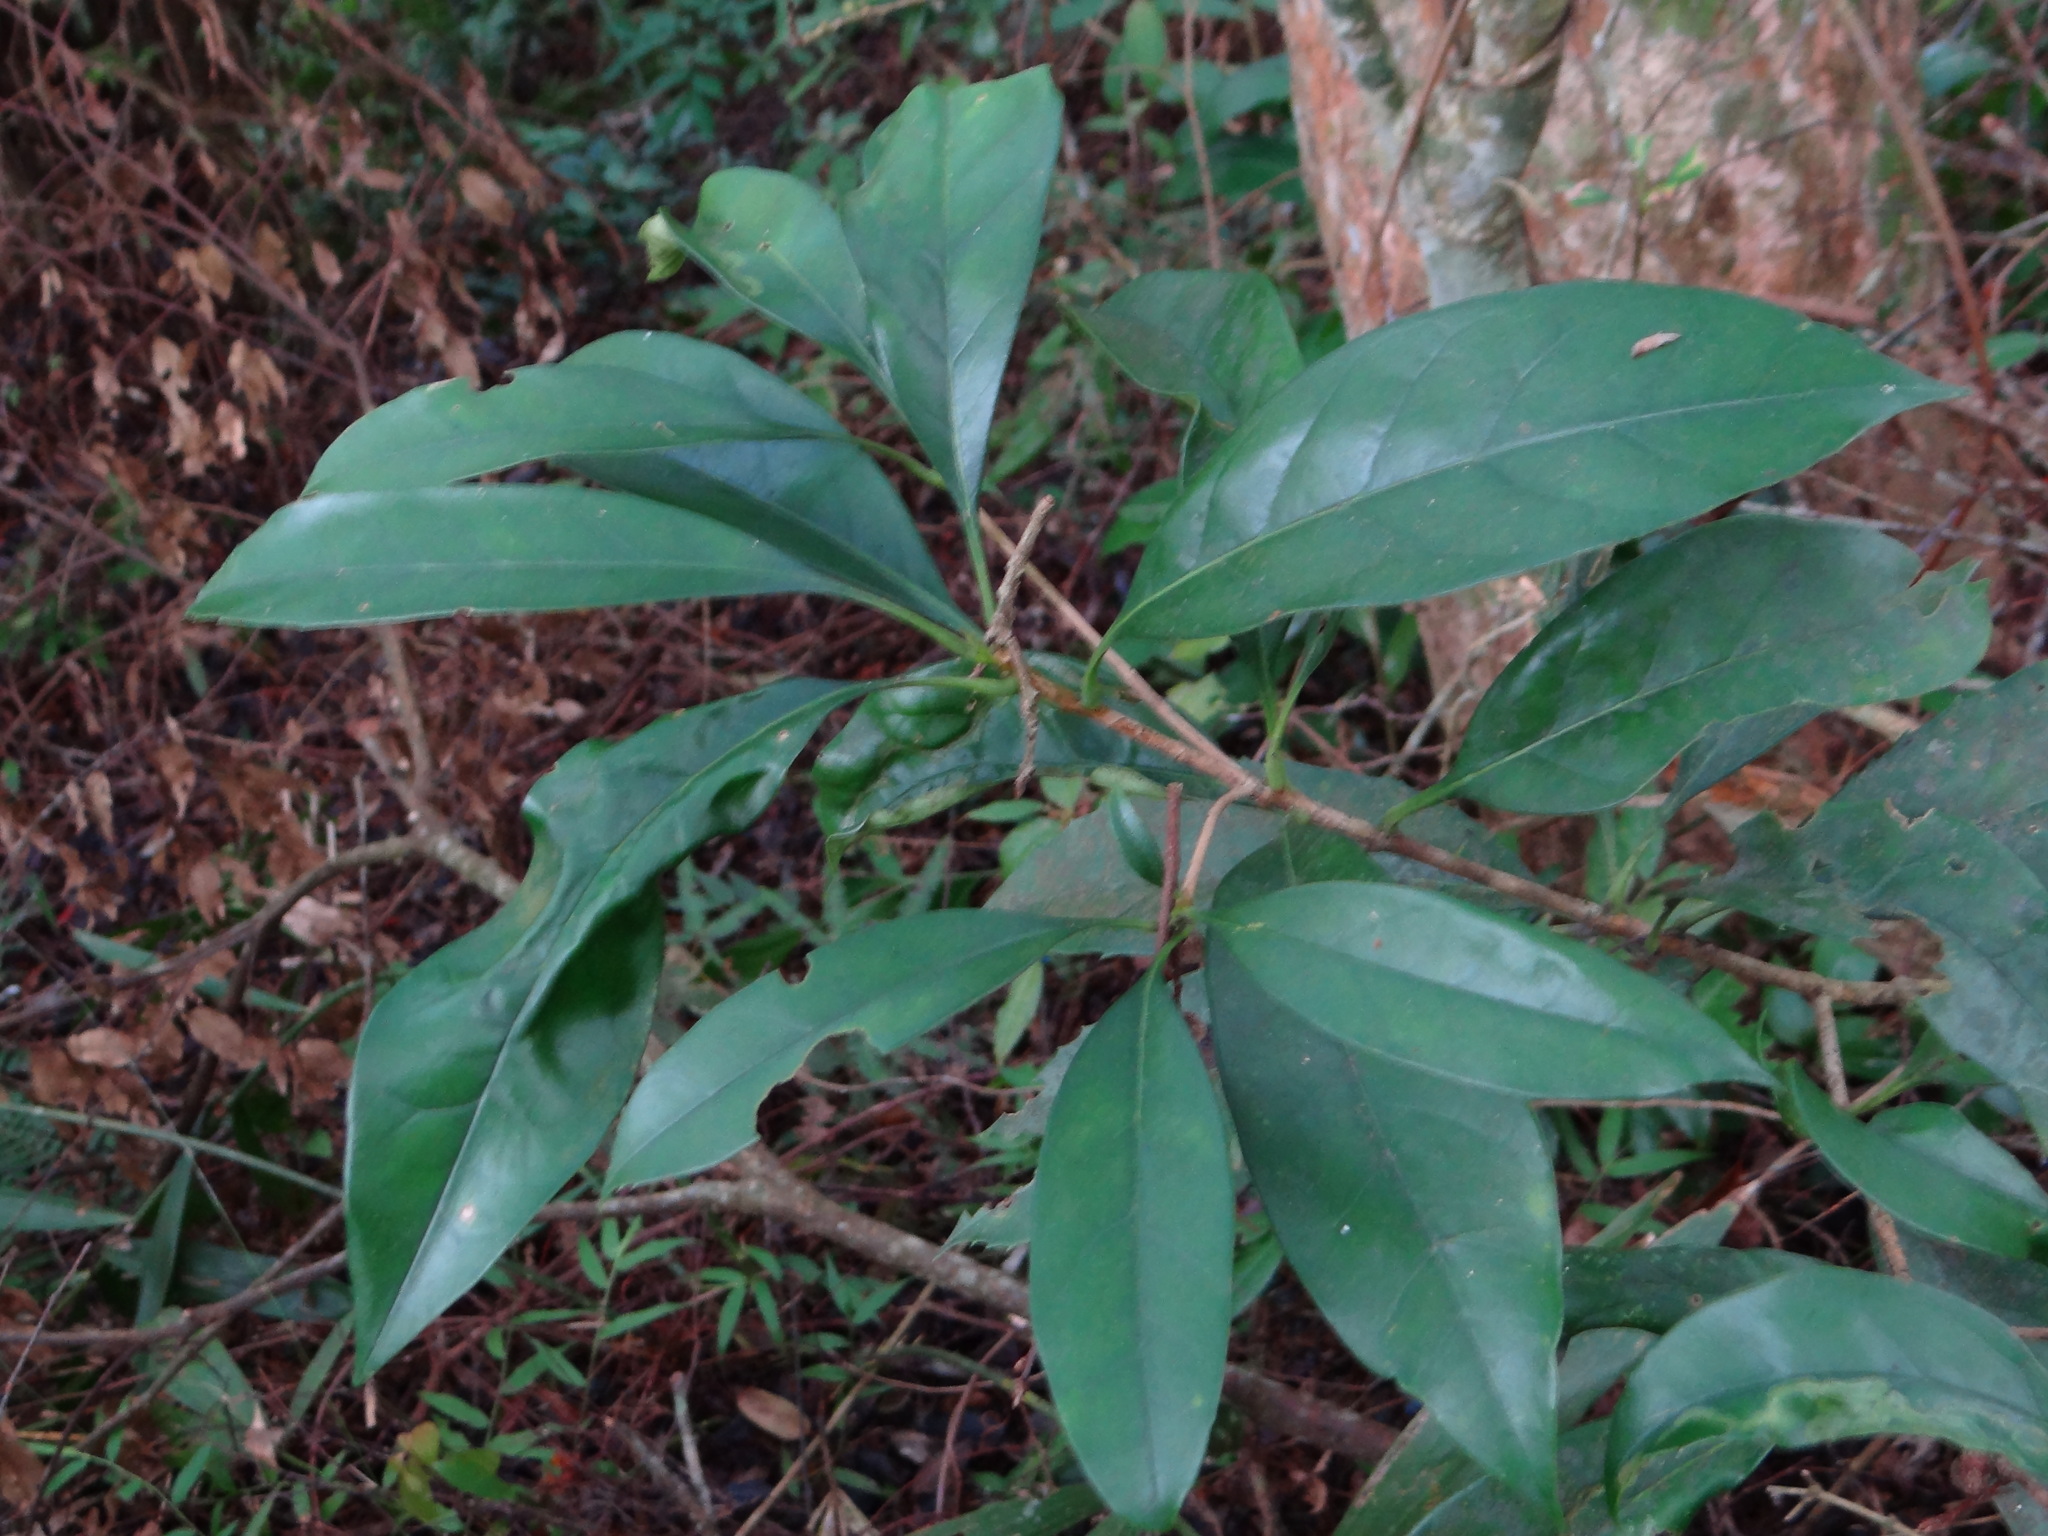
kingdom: Plantae
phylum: Tracheophyta
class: Magnoliopsida
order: Lamiales
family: Oleaceae
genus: Chengiodendron
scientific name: Chengiodendron matsumuranum
